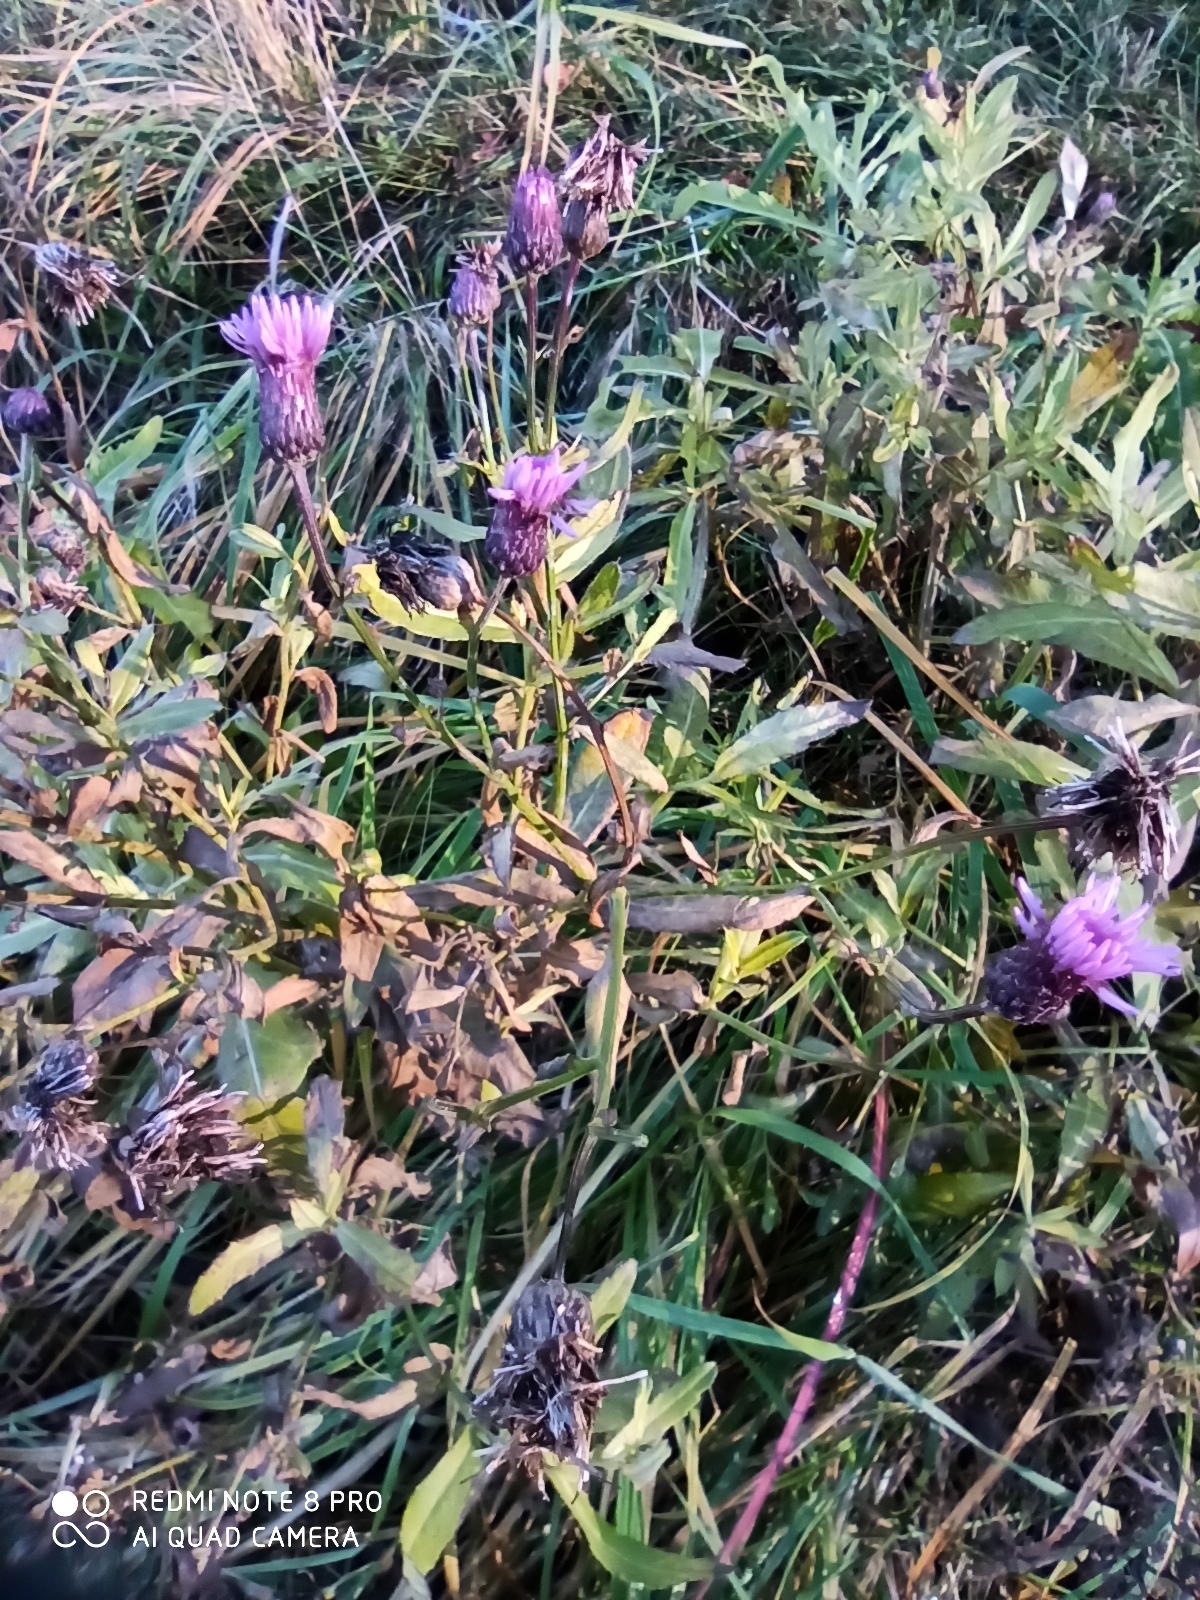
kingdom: Plantae
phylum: Tracheophyta
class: Magnoliopsida
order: Asterales
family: Asteraceae
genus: Cirsium
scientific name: Cirsium arvense
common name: Creeping thistle
